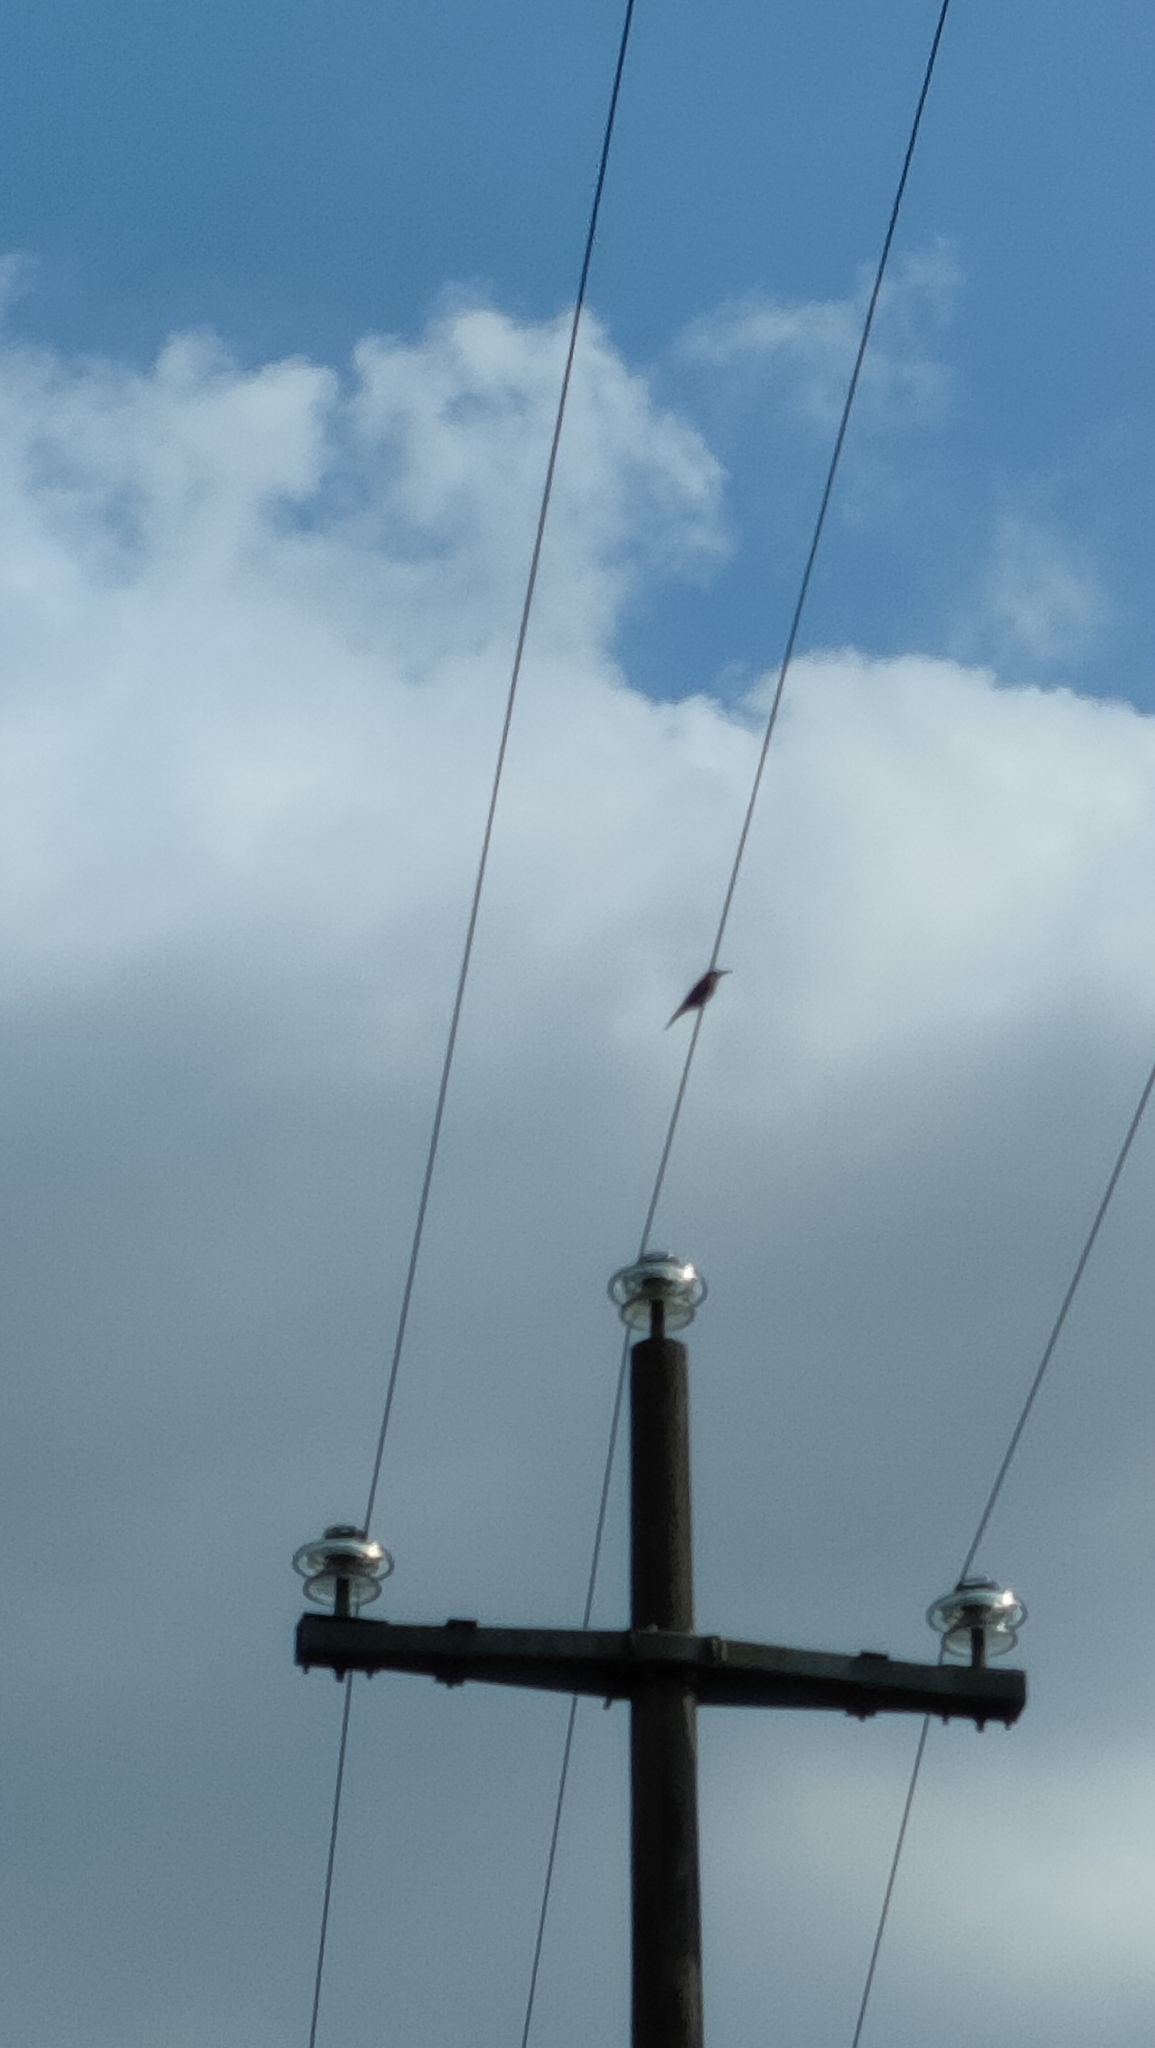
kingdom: Animalia
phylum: Chordata
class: Aves
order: Coraciiformes
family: Meropidae
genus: Merops
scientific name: Merops apiaster
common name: European bee-eater
